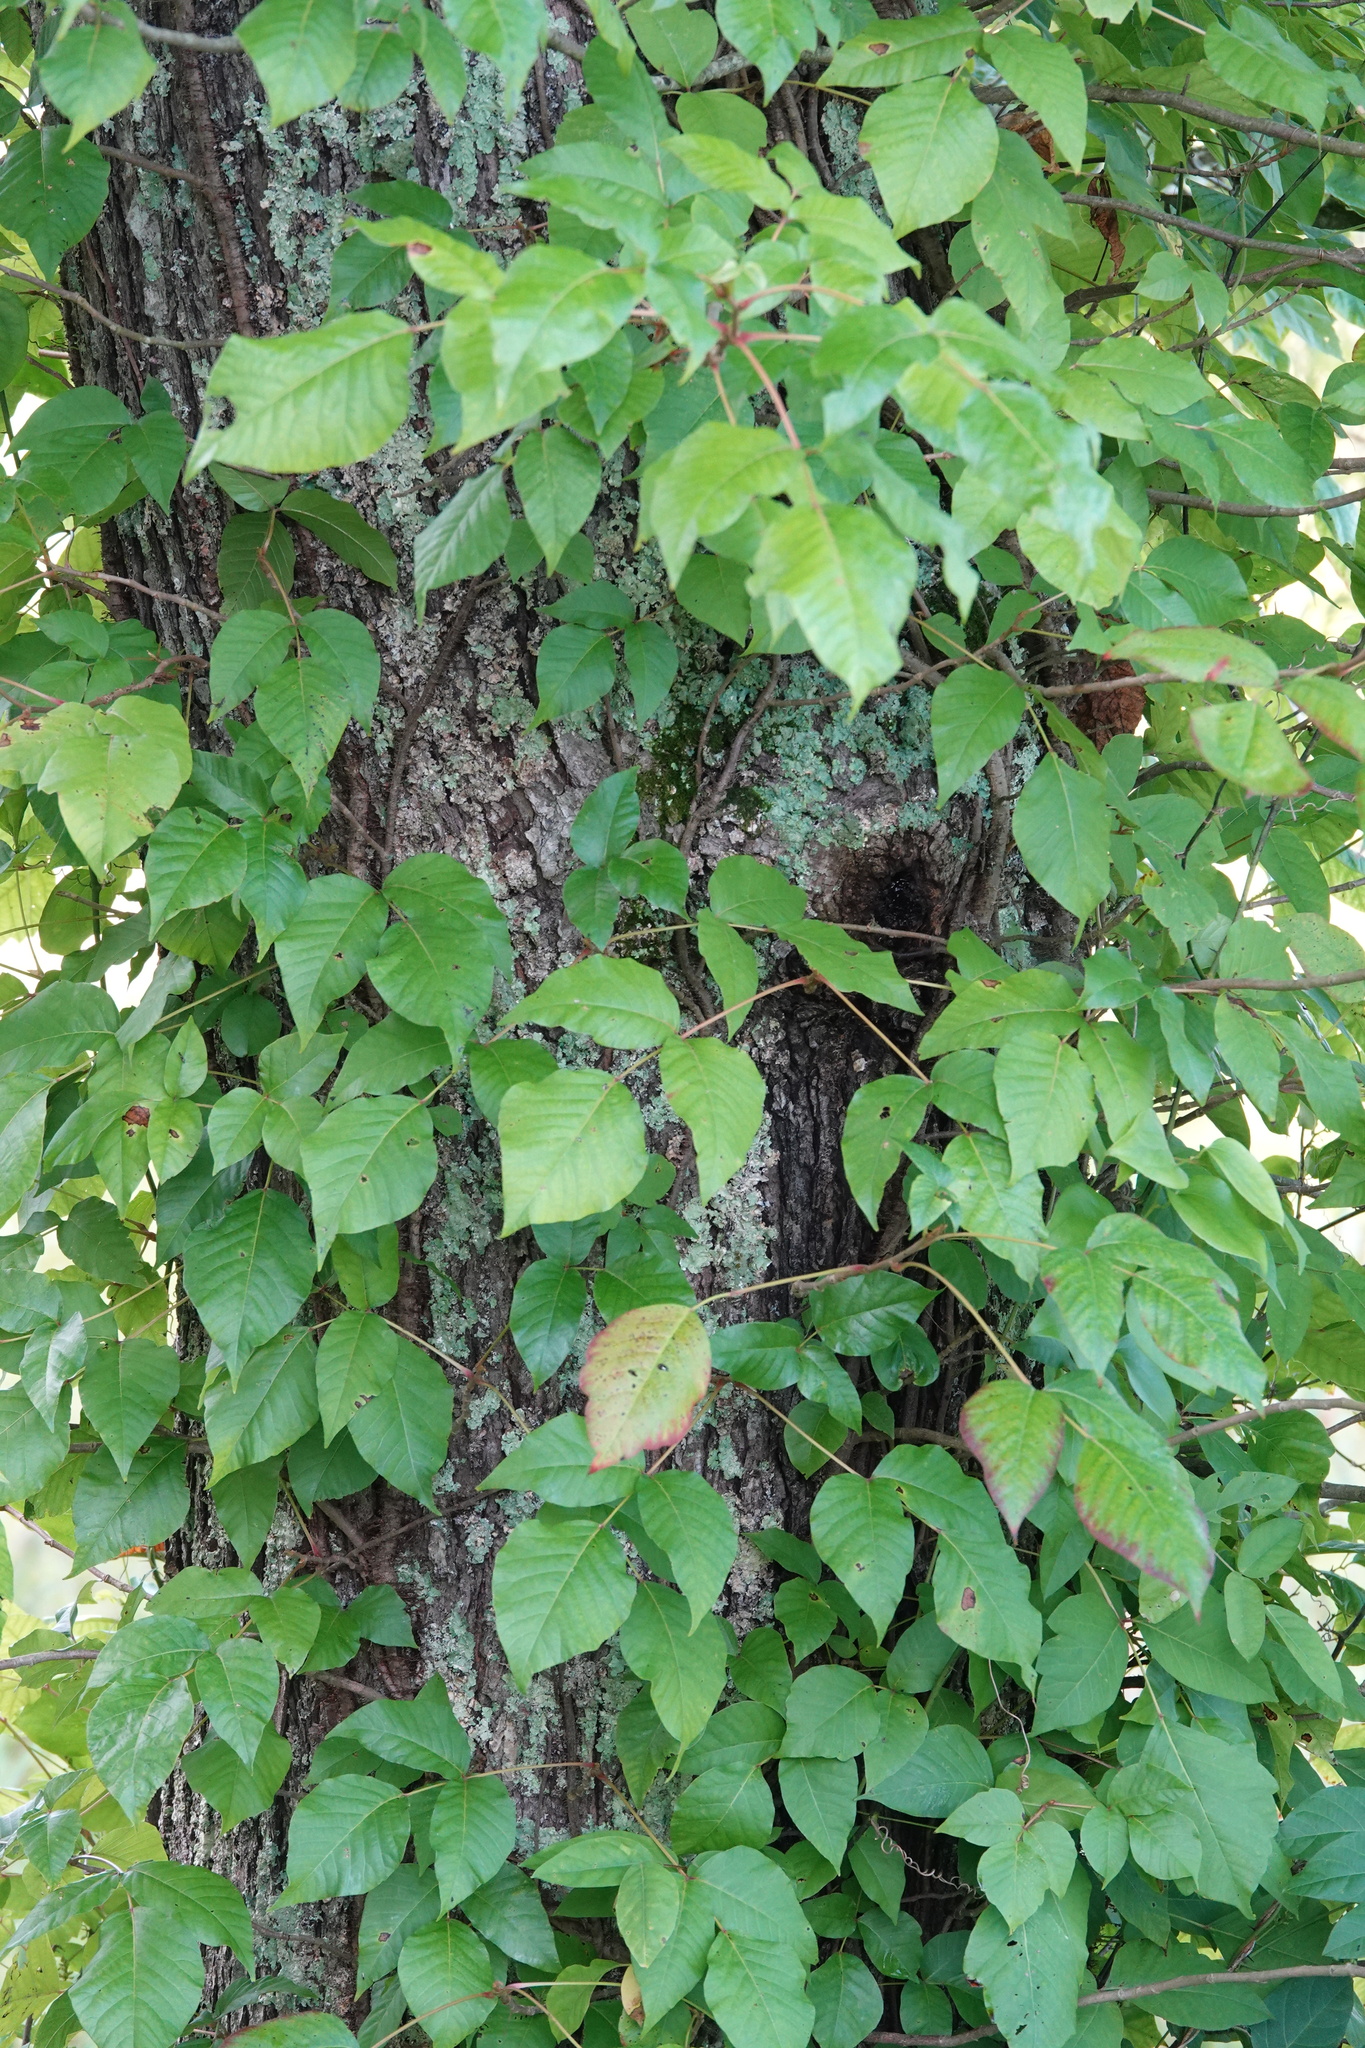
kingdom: Plantae
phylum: Tracheophyta
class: Magnoliopsida
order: Sapindales
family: Anacardiaceae
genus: Toxicodendron
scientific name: Toxicodendron radicans
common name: Poison ivy
